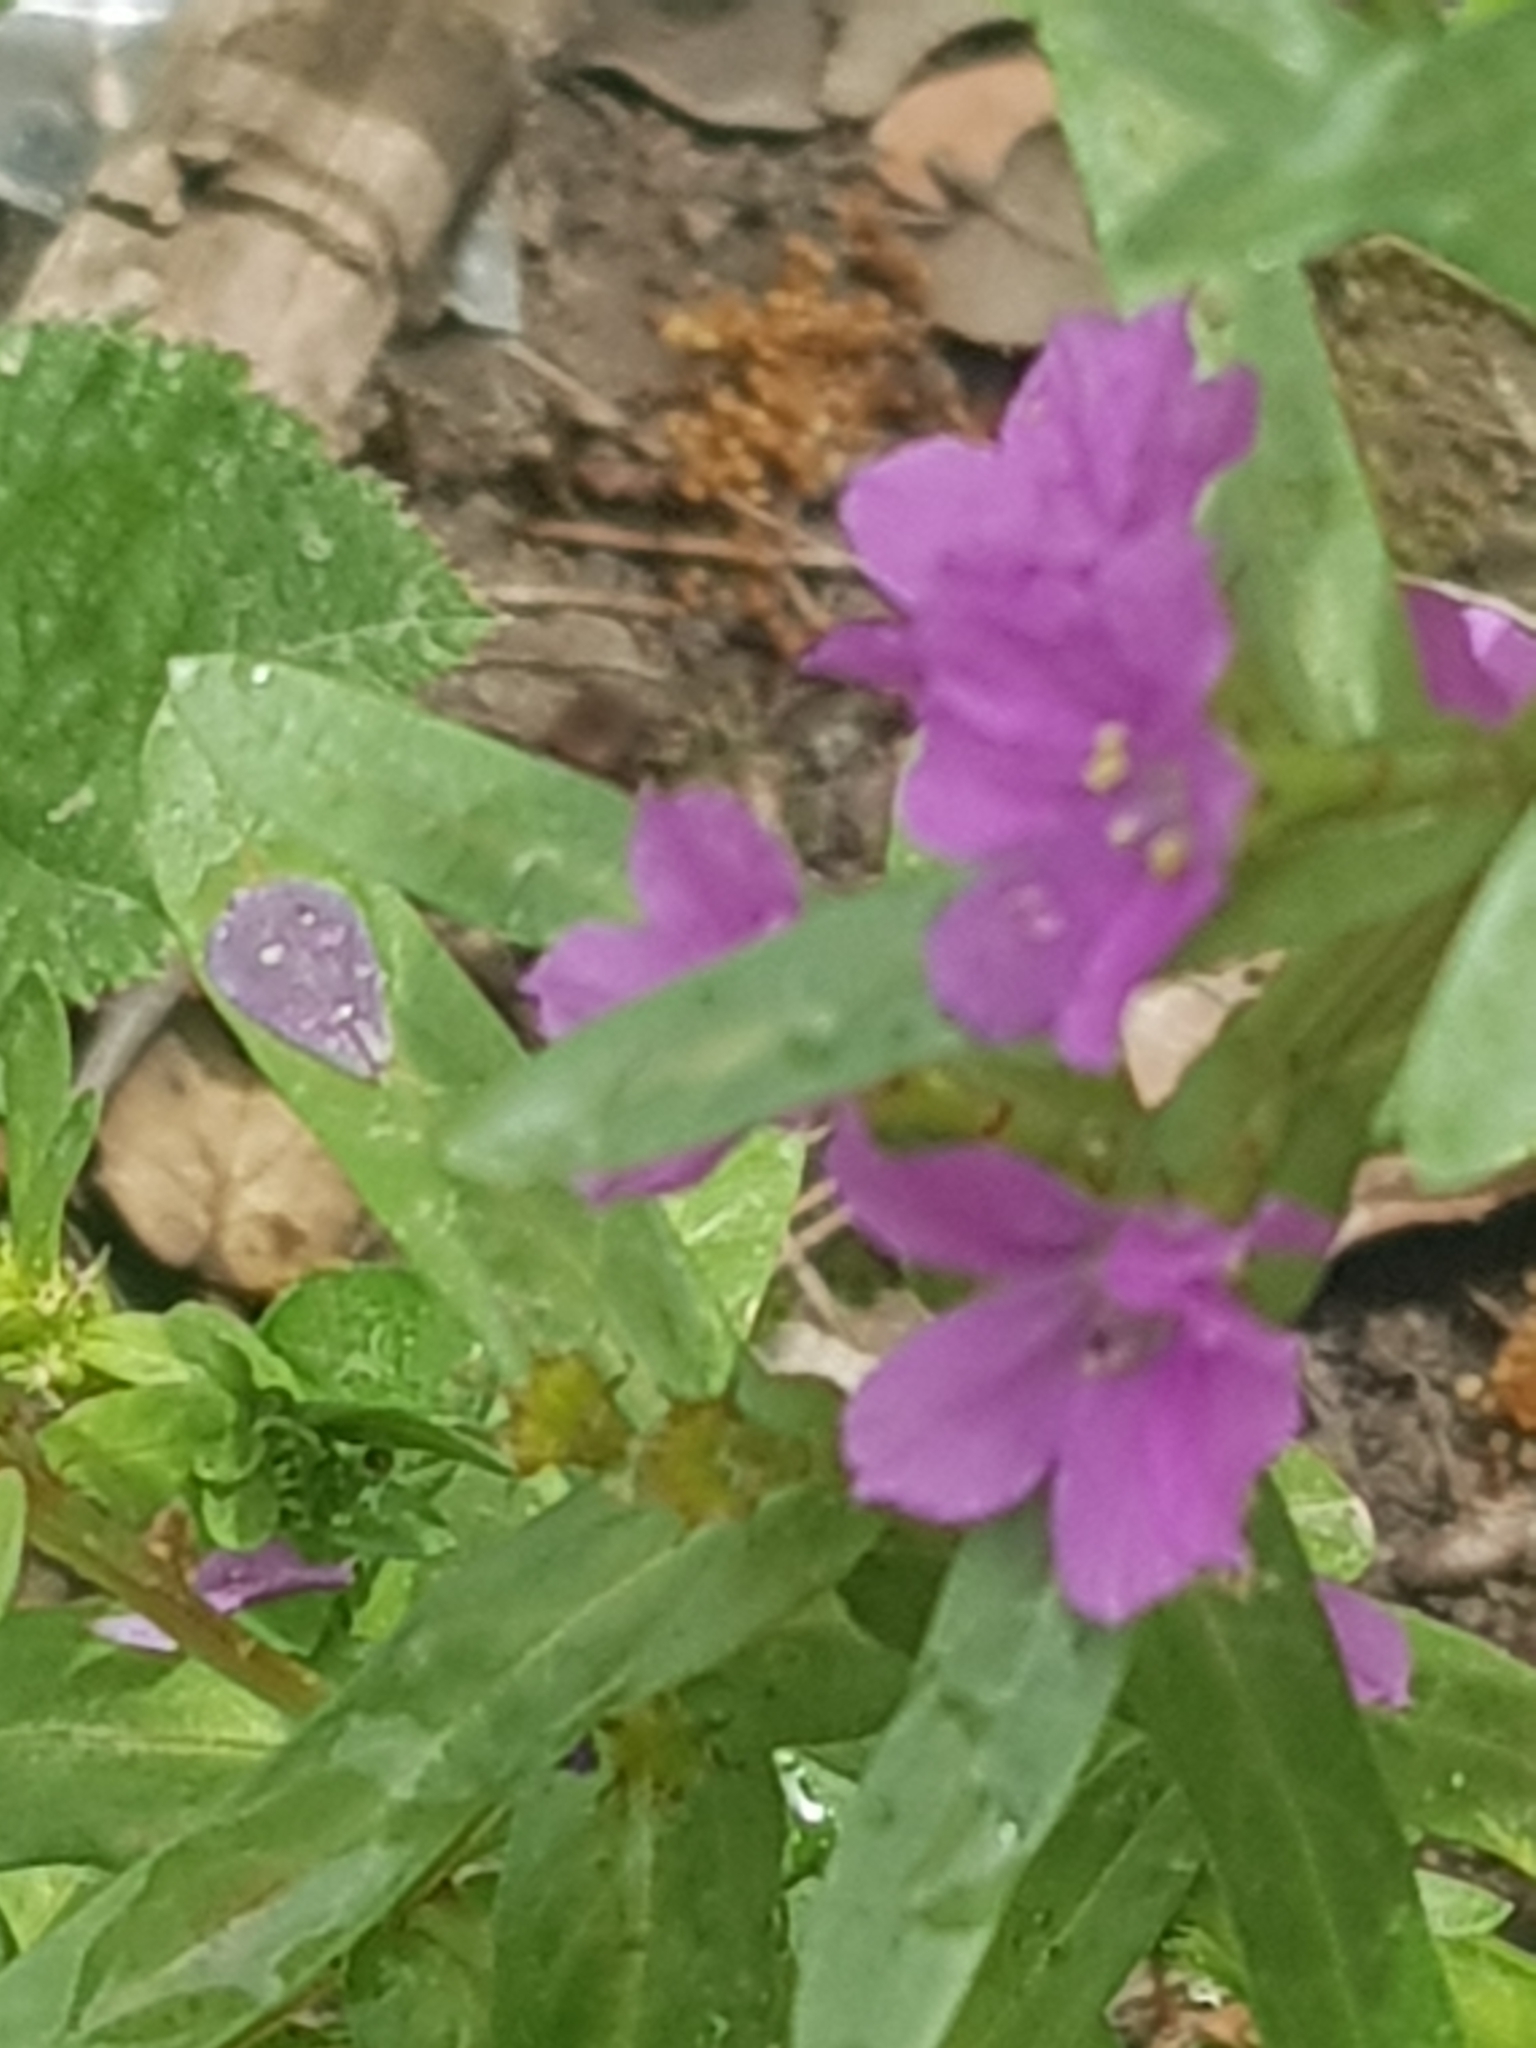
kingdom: Plantae
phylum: Tracheophyta
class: Magnoliopsida
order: Myrtales
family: Lythraceae
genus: Lythrum
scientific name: Lythrum junceum
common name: False grass-poly
